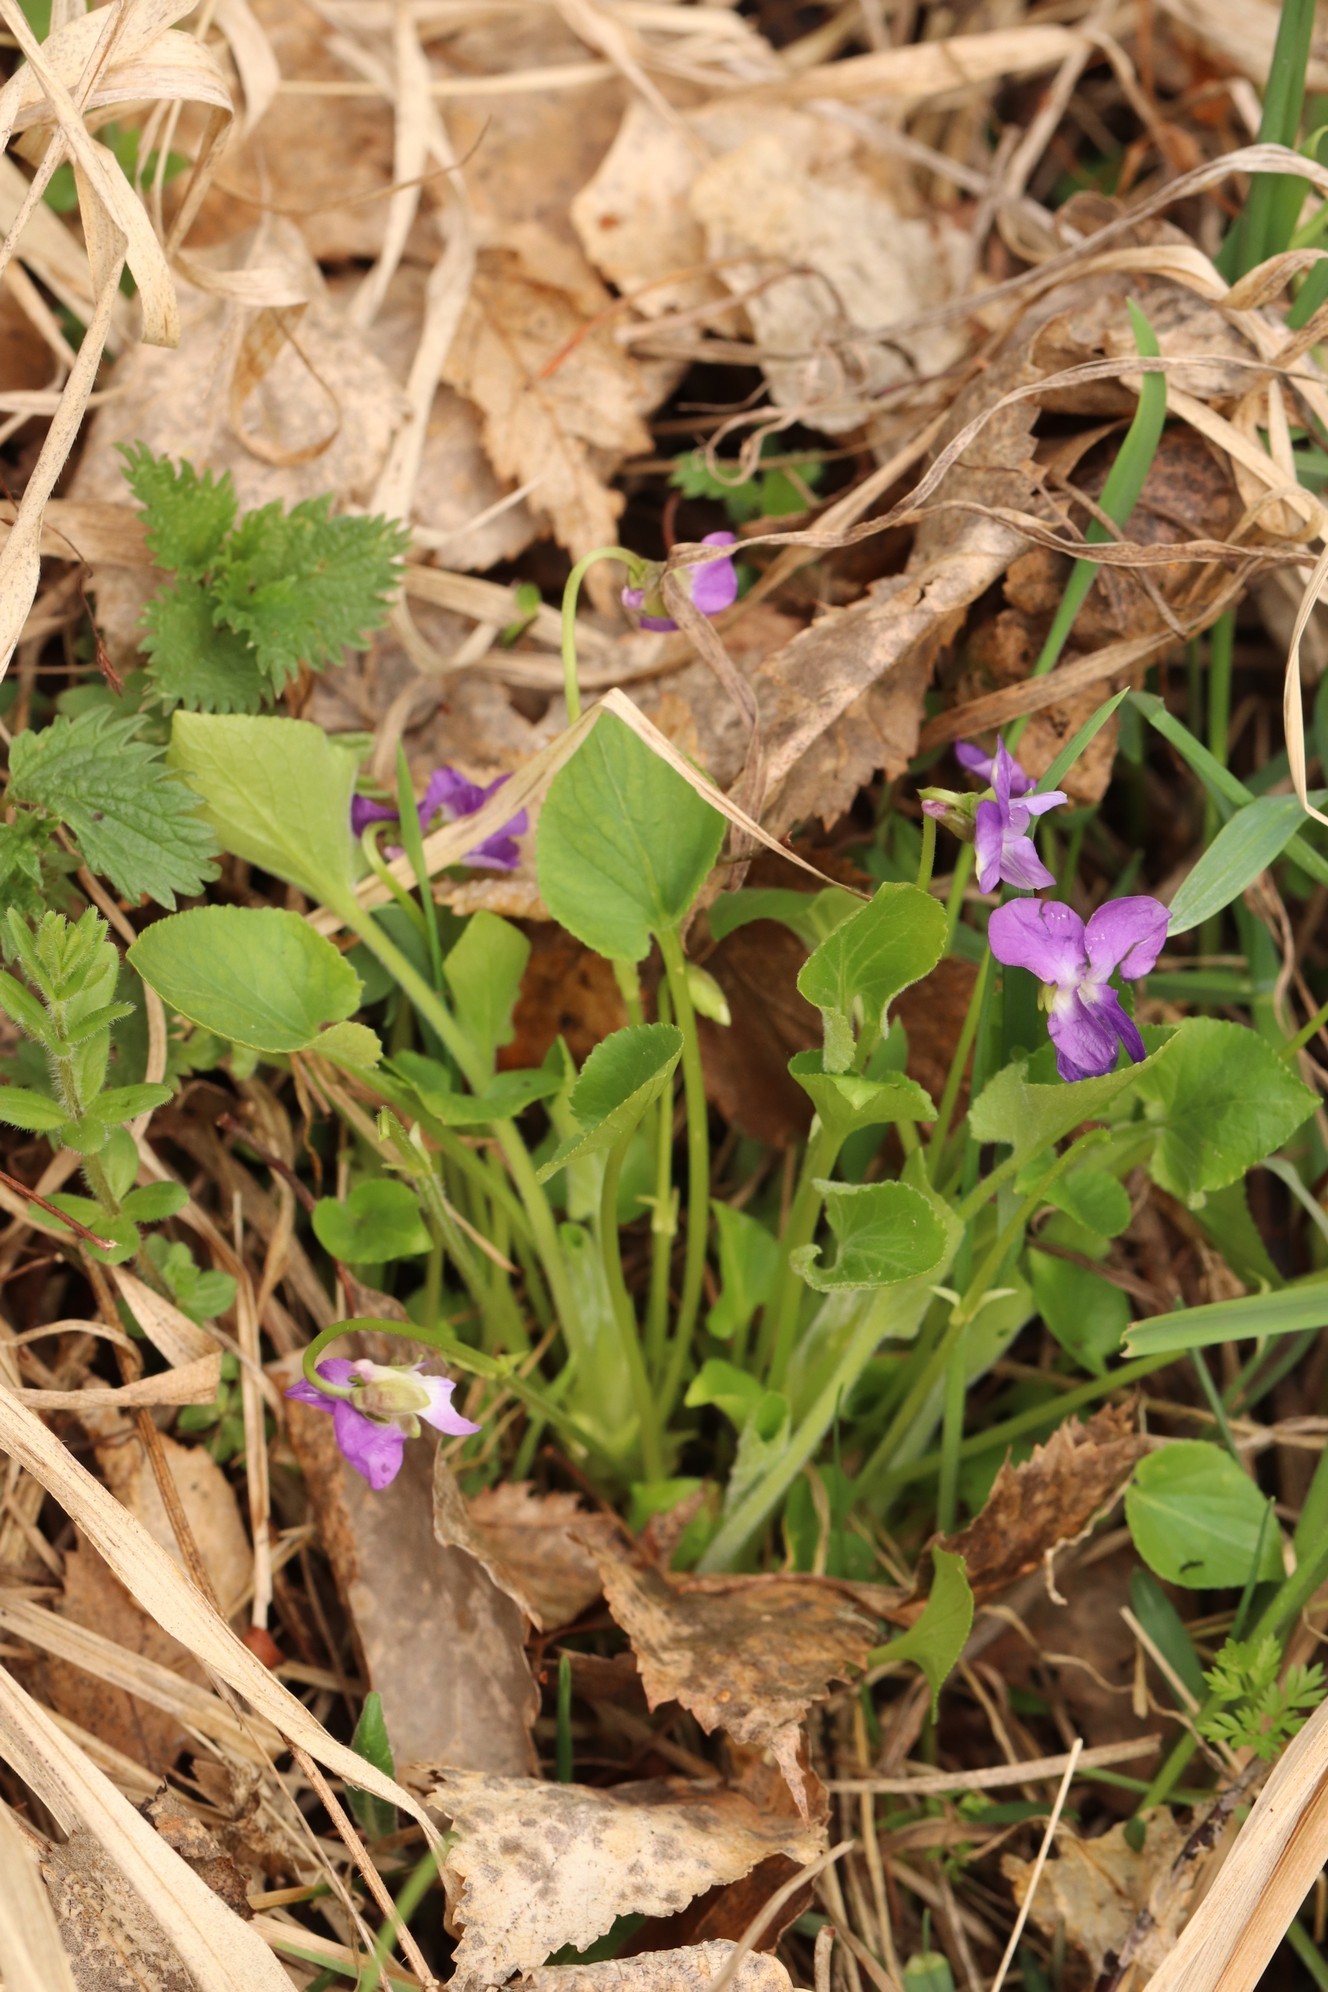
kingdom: Plantae
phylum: Tracheophyta
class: Magnoliopsida
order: Malpighiales
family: Violaceae
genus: Viola
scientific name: Viola mirabilis
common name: Wonder violet
